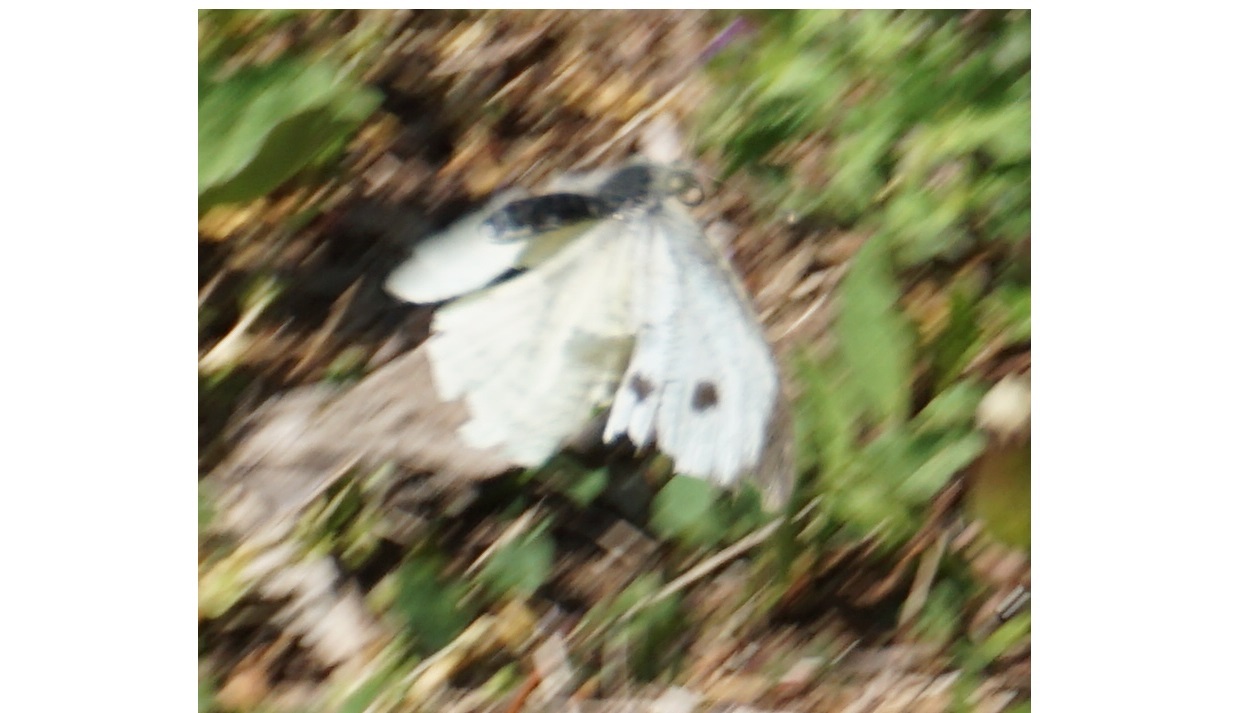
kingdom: Animalia
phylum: Arthropoda
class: Insecta
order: Lepidoptera
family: Pieridae
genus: Pieris
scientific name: Pieris brassicae
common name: Large white
